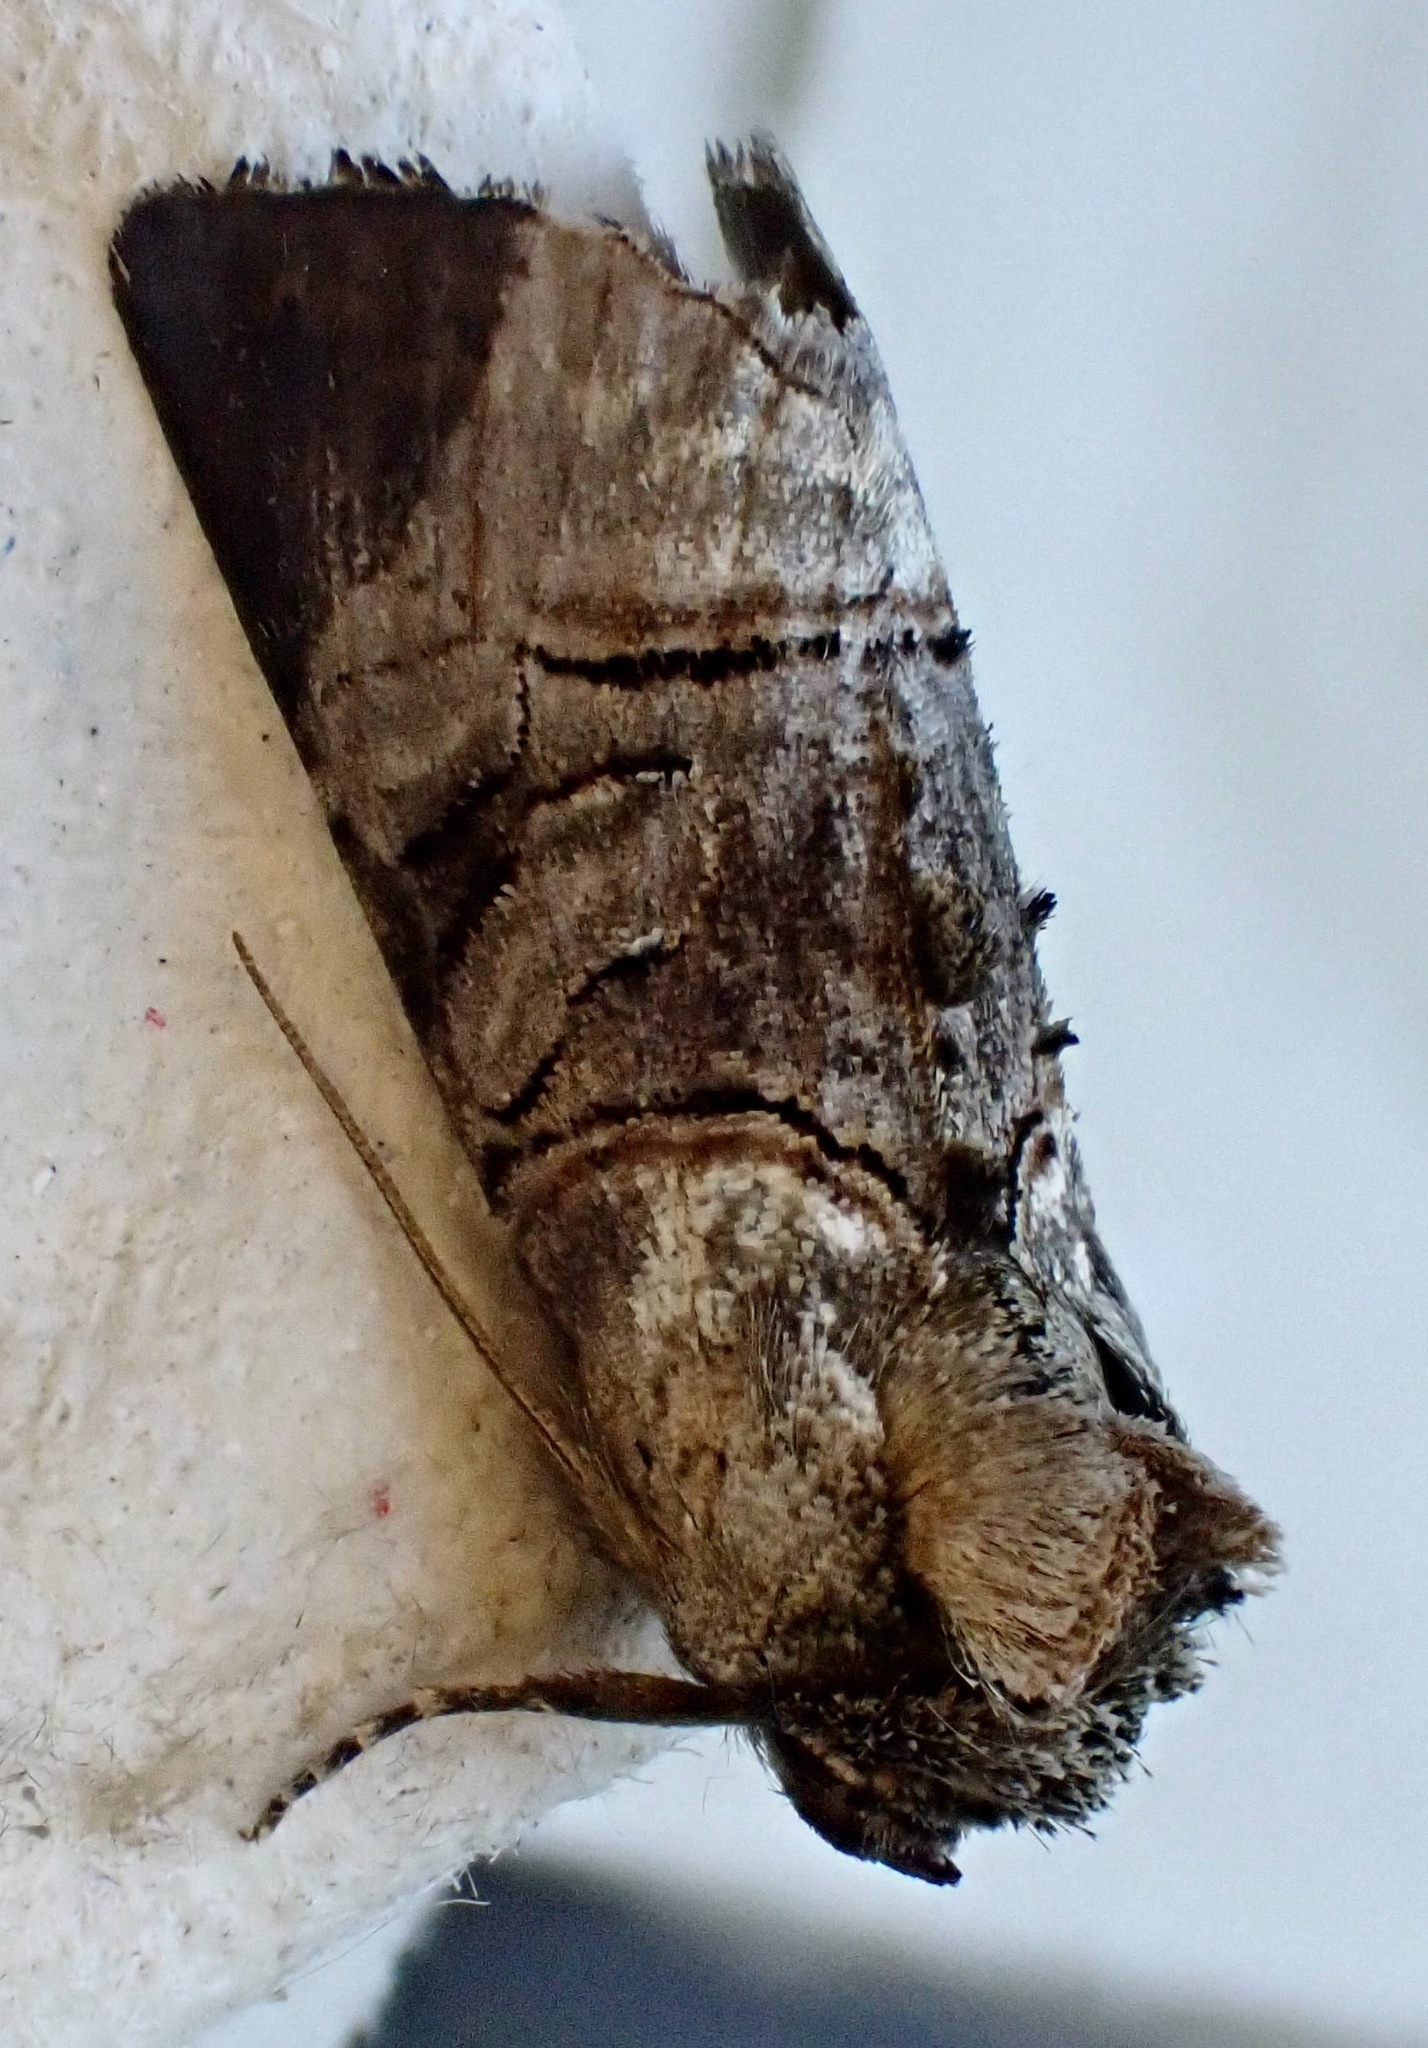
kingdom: Animalia
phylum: Arthropoda
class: Insecta
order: Lepidoptera
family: Noctuidae
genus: Abrostola
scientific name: Abrostola tripartita
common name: Spectacle
